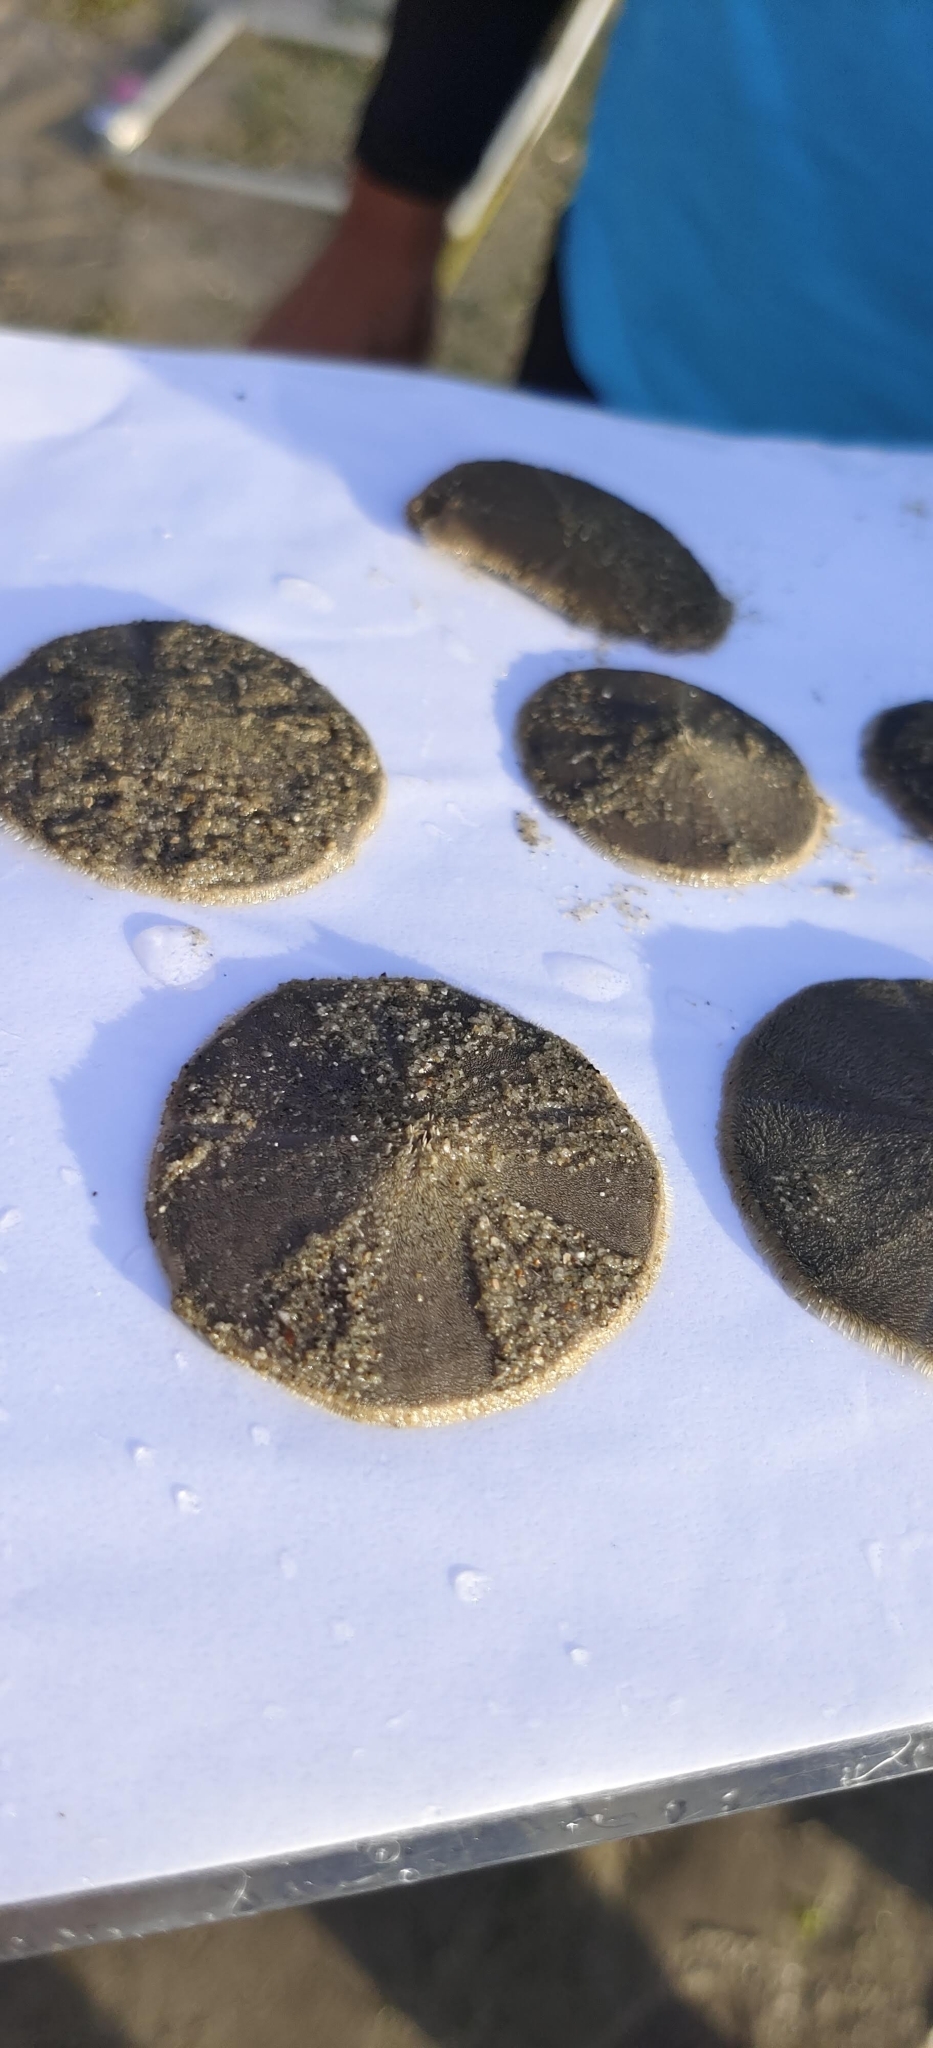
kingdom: Animalia
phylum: Echinodermata
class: Echinoidea
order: Clypeasteroida
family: Clypeasteridae
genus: Arachnoides
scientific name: Arachnoides placenta
